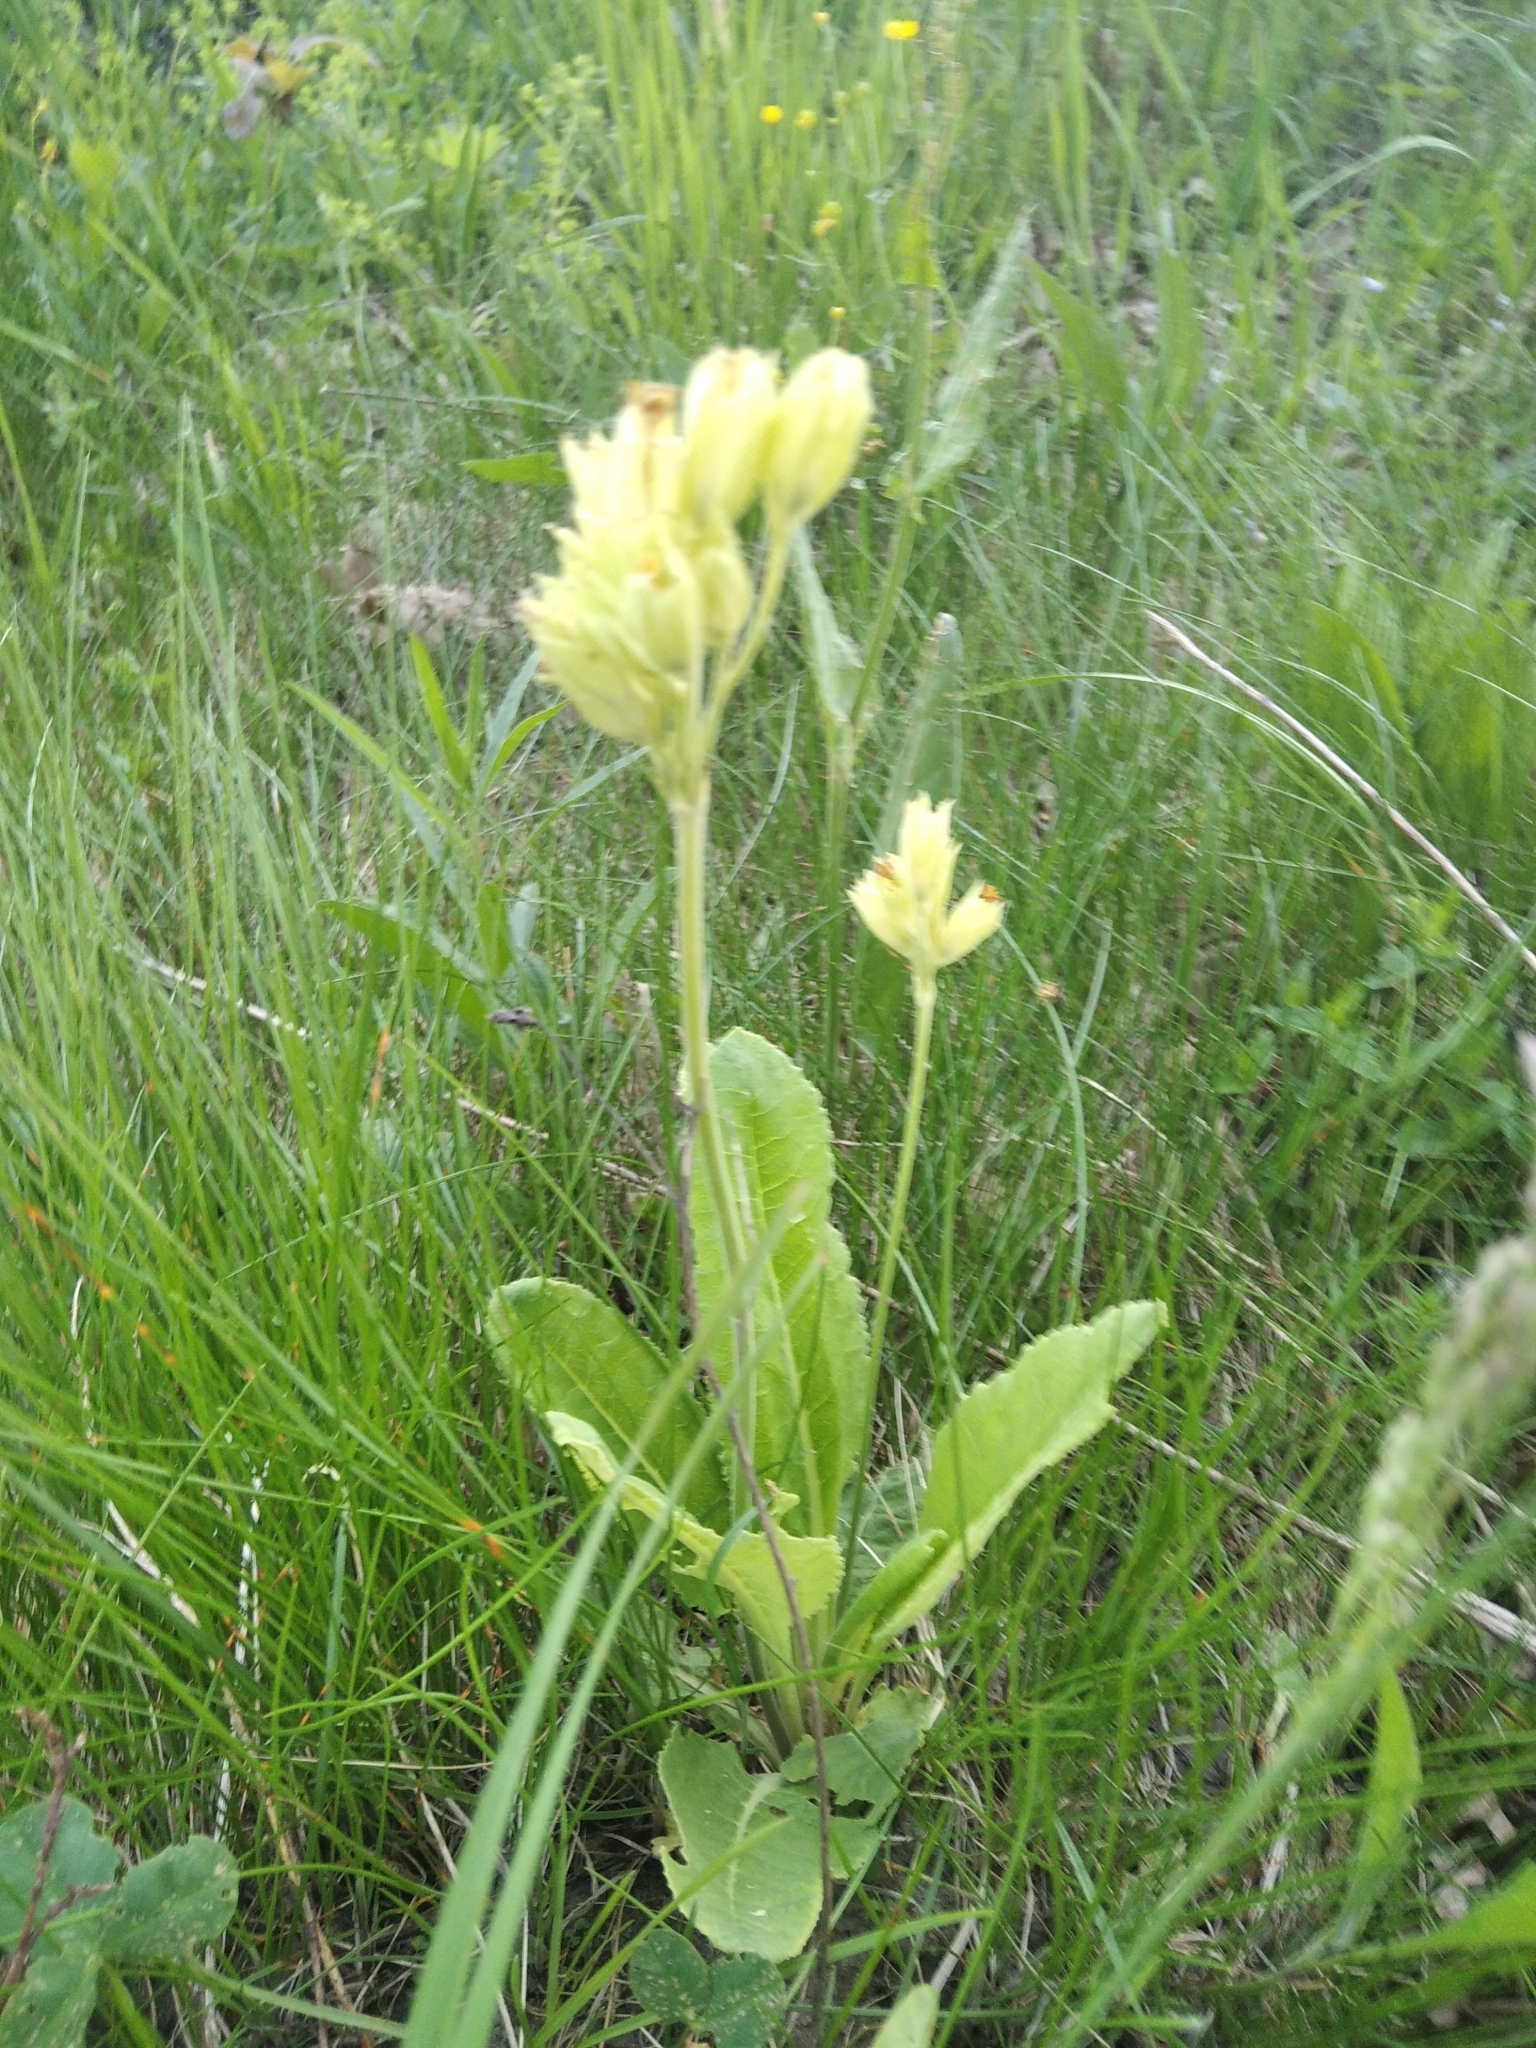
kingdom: Plantae
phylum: Tracheophyta
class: Magnoliopsida
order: Ericales
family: Primulaceae
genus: Primula
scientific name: Primula veris
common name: Cowslip
